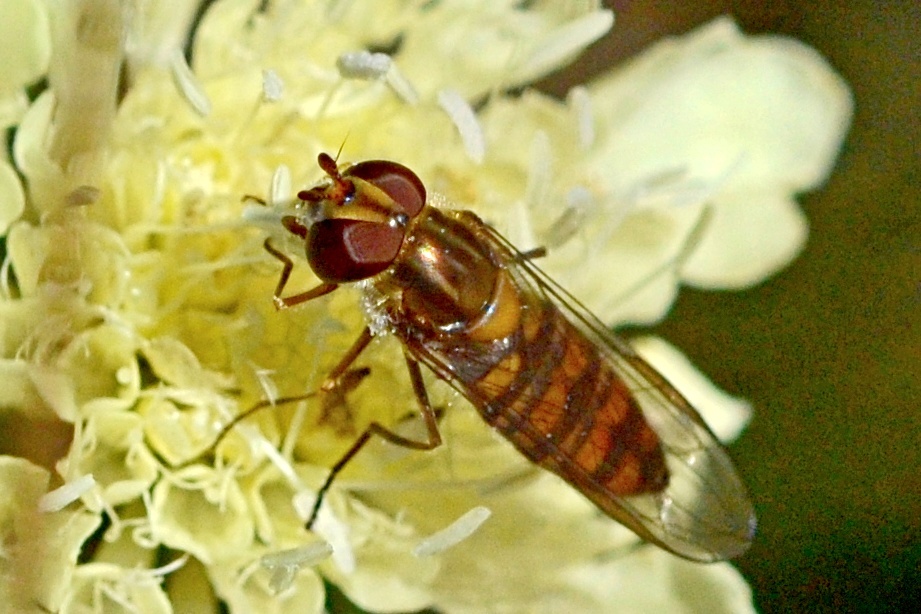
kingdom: Animalia
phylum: Arthropoda
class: Insecta
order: Diptera
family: Syrphidae
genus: Episyrphus
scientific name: Episyrphus balteatus
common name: Marmalade hoverfly
